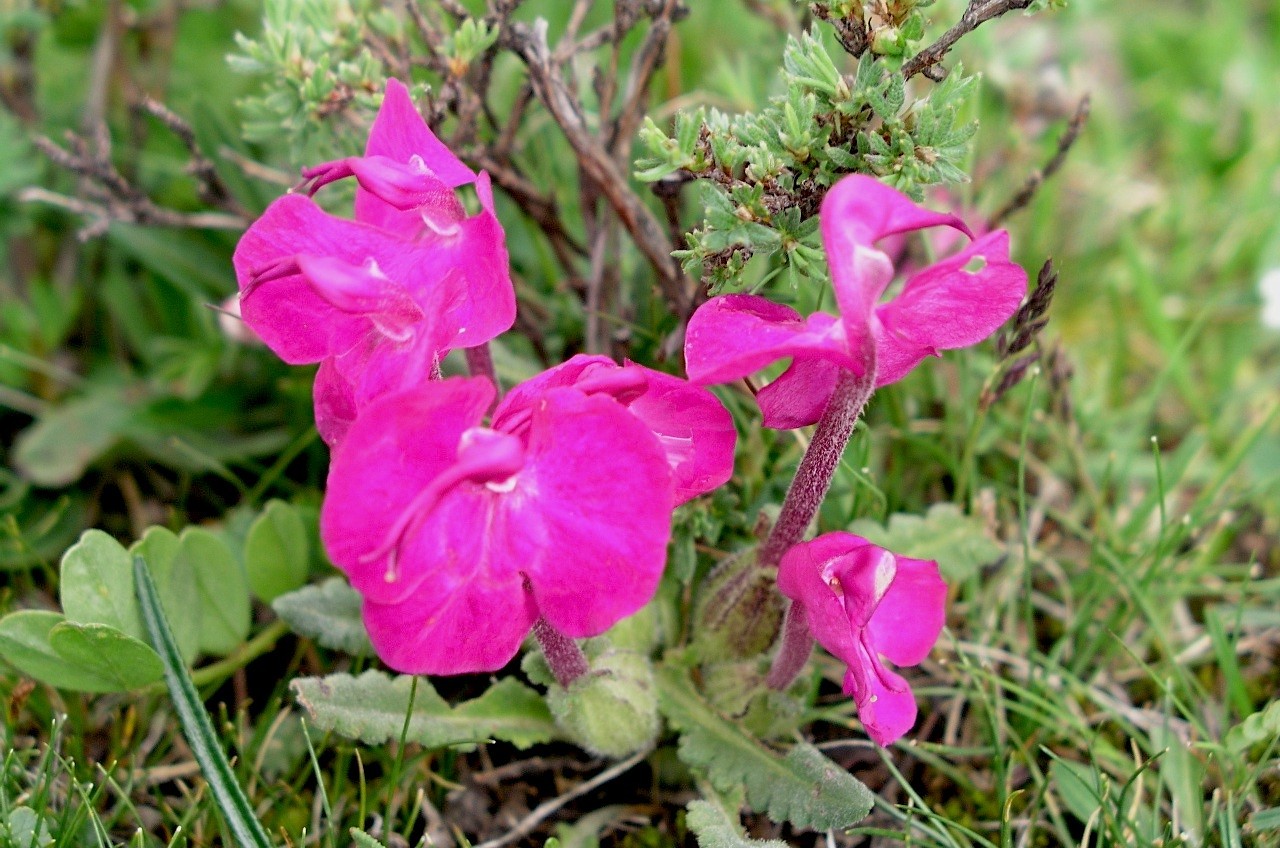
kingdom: Plantae
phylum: Tracheophyta
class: Magnoliopsida
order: Lamiales
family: Orobanchaceae
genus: Pedicularis
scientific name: Pedicularis przewalskii
